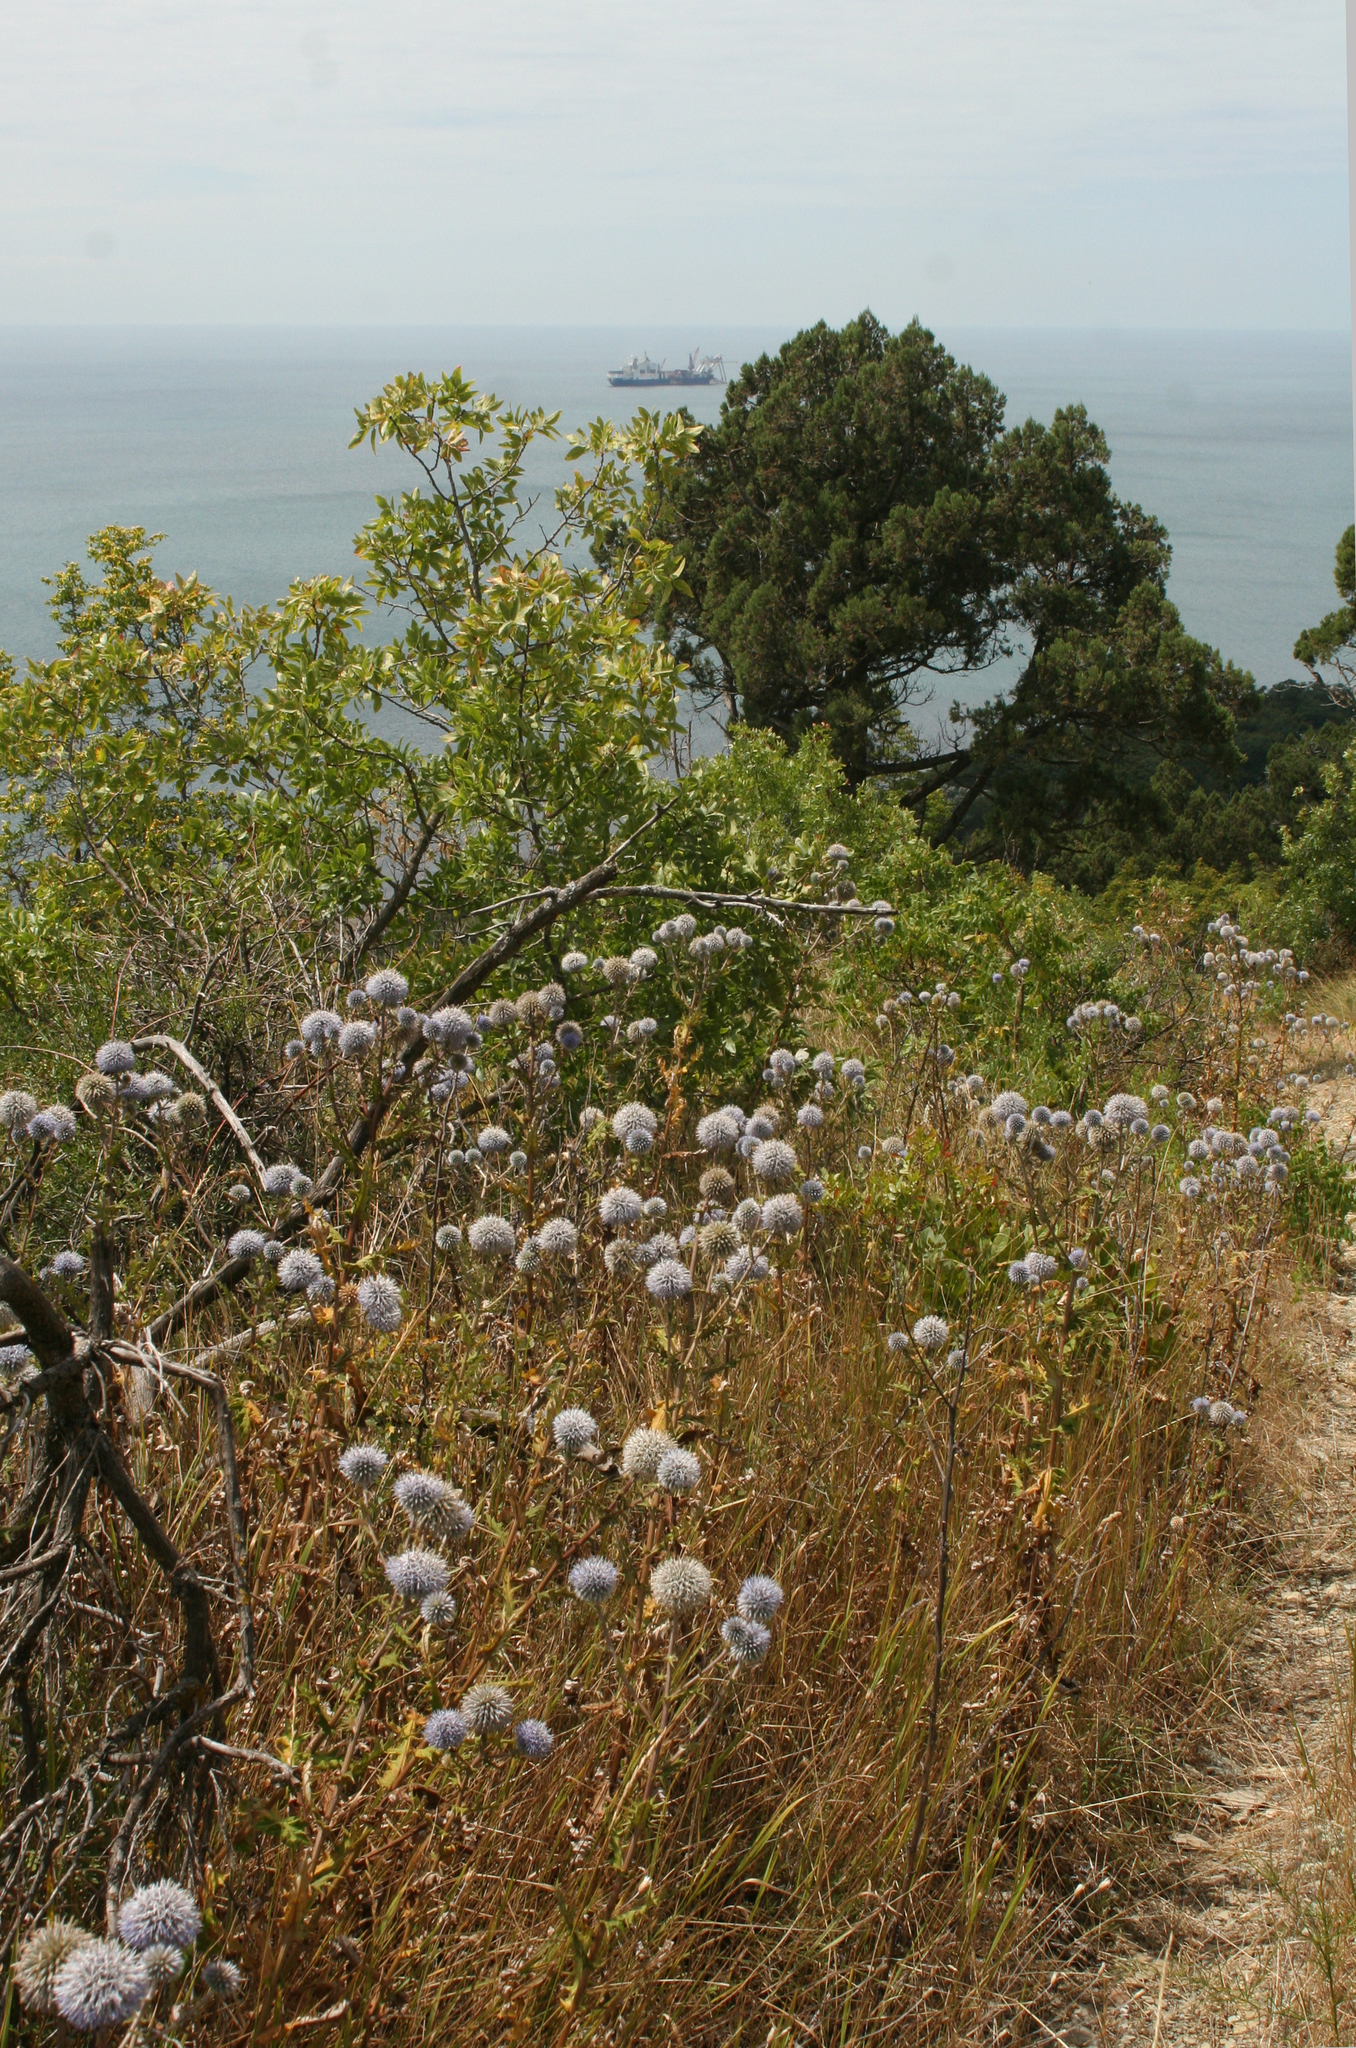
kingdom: Plantae
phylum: Tracheophyta
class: Magnoliopsida
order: Asterales
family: Asteraceae
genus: Echinops
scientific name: Echinops sphaerocephalus
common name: Glandular globe-thistle
